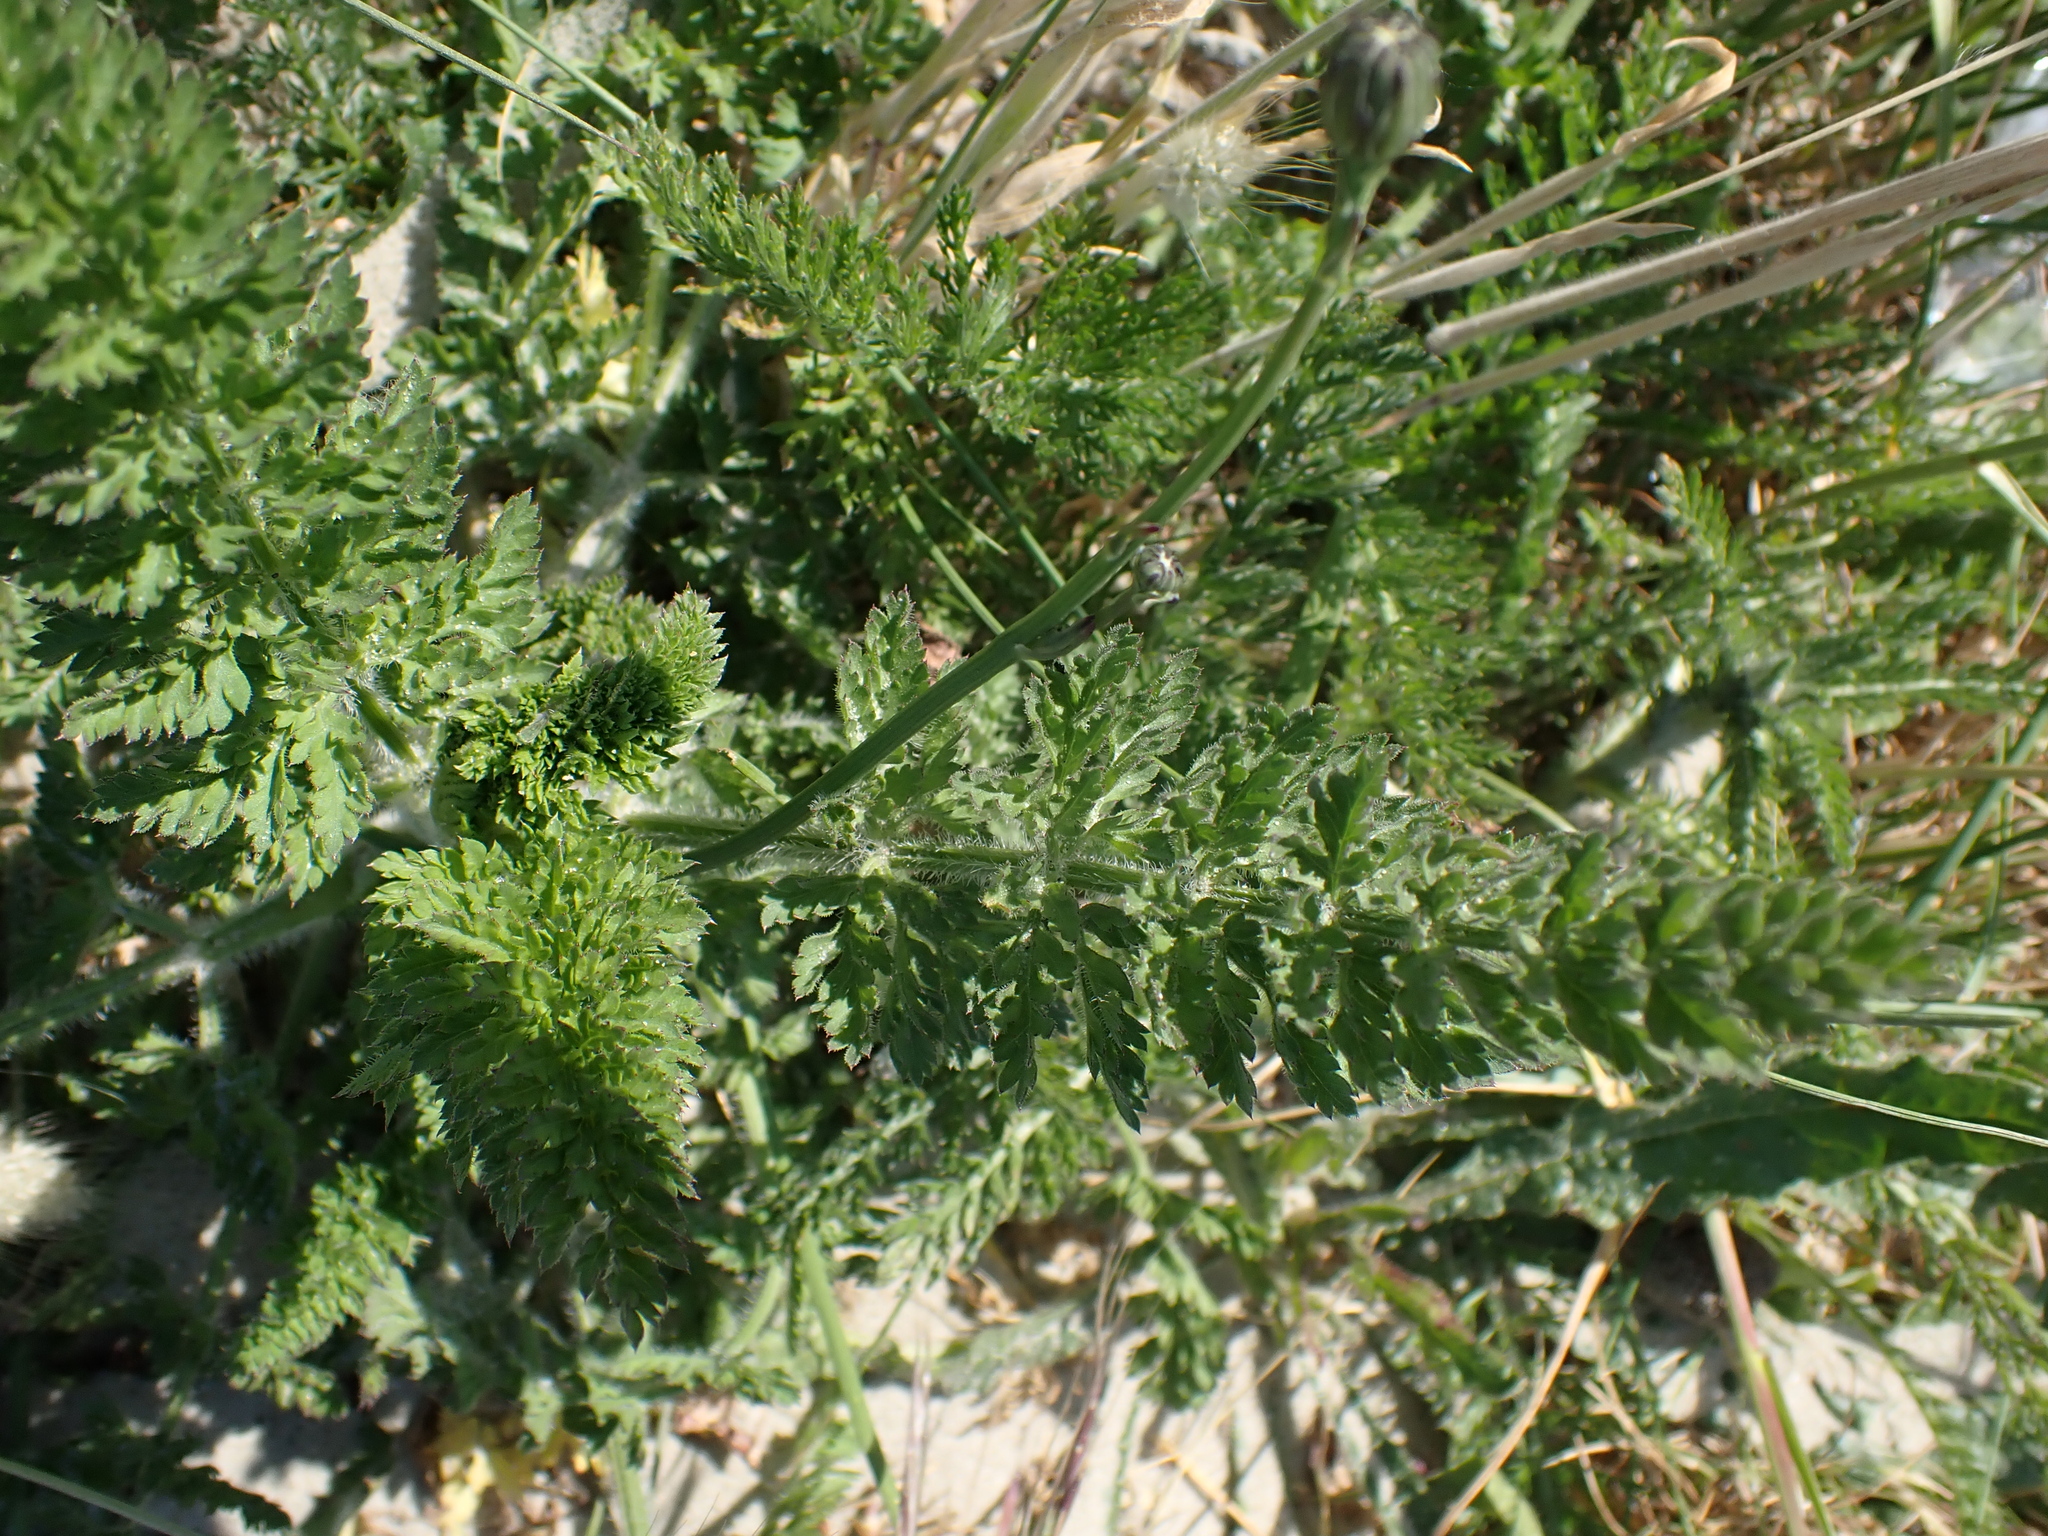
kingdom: Plantae
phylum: Tracheophyta
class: Magnoliopsida
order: Apiales
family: Apiaceae
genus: Daucus
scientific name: Daucus carota
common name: Wild carrot
